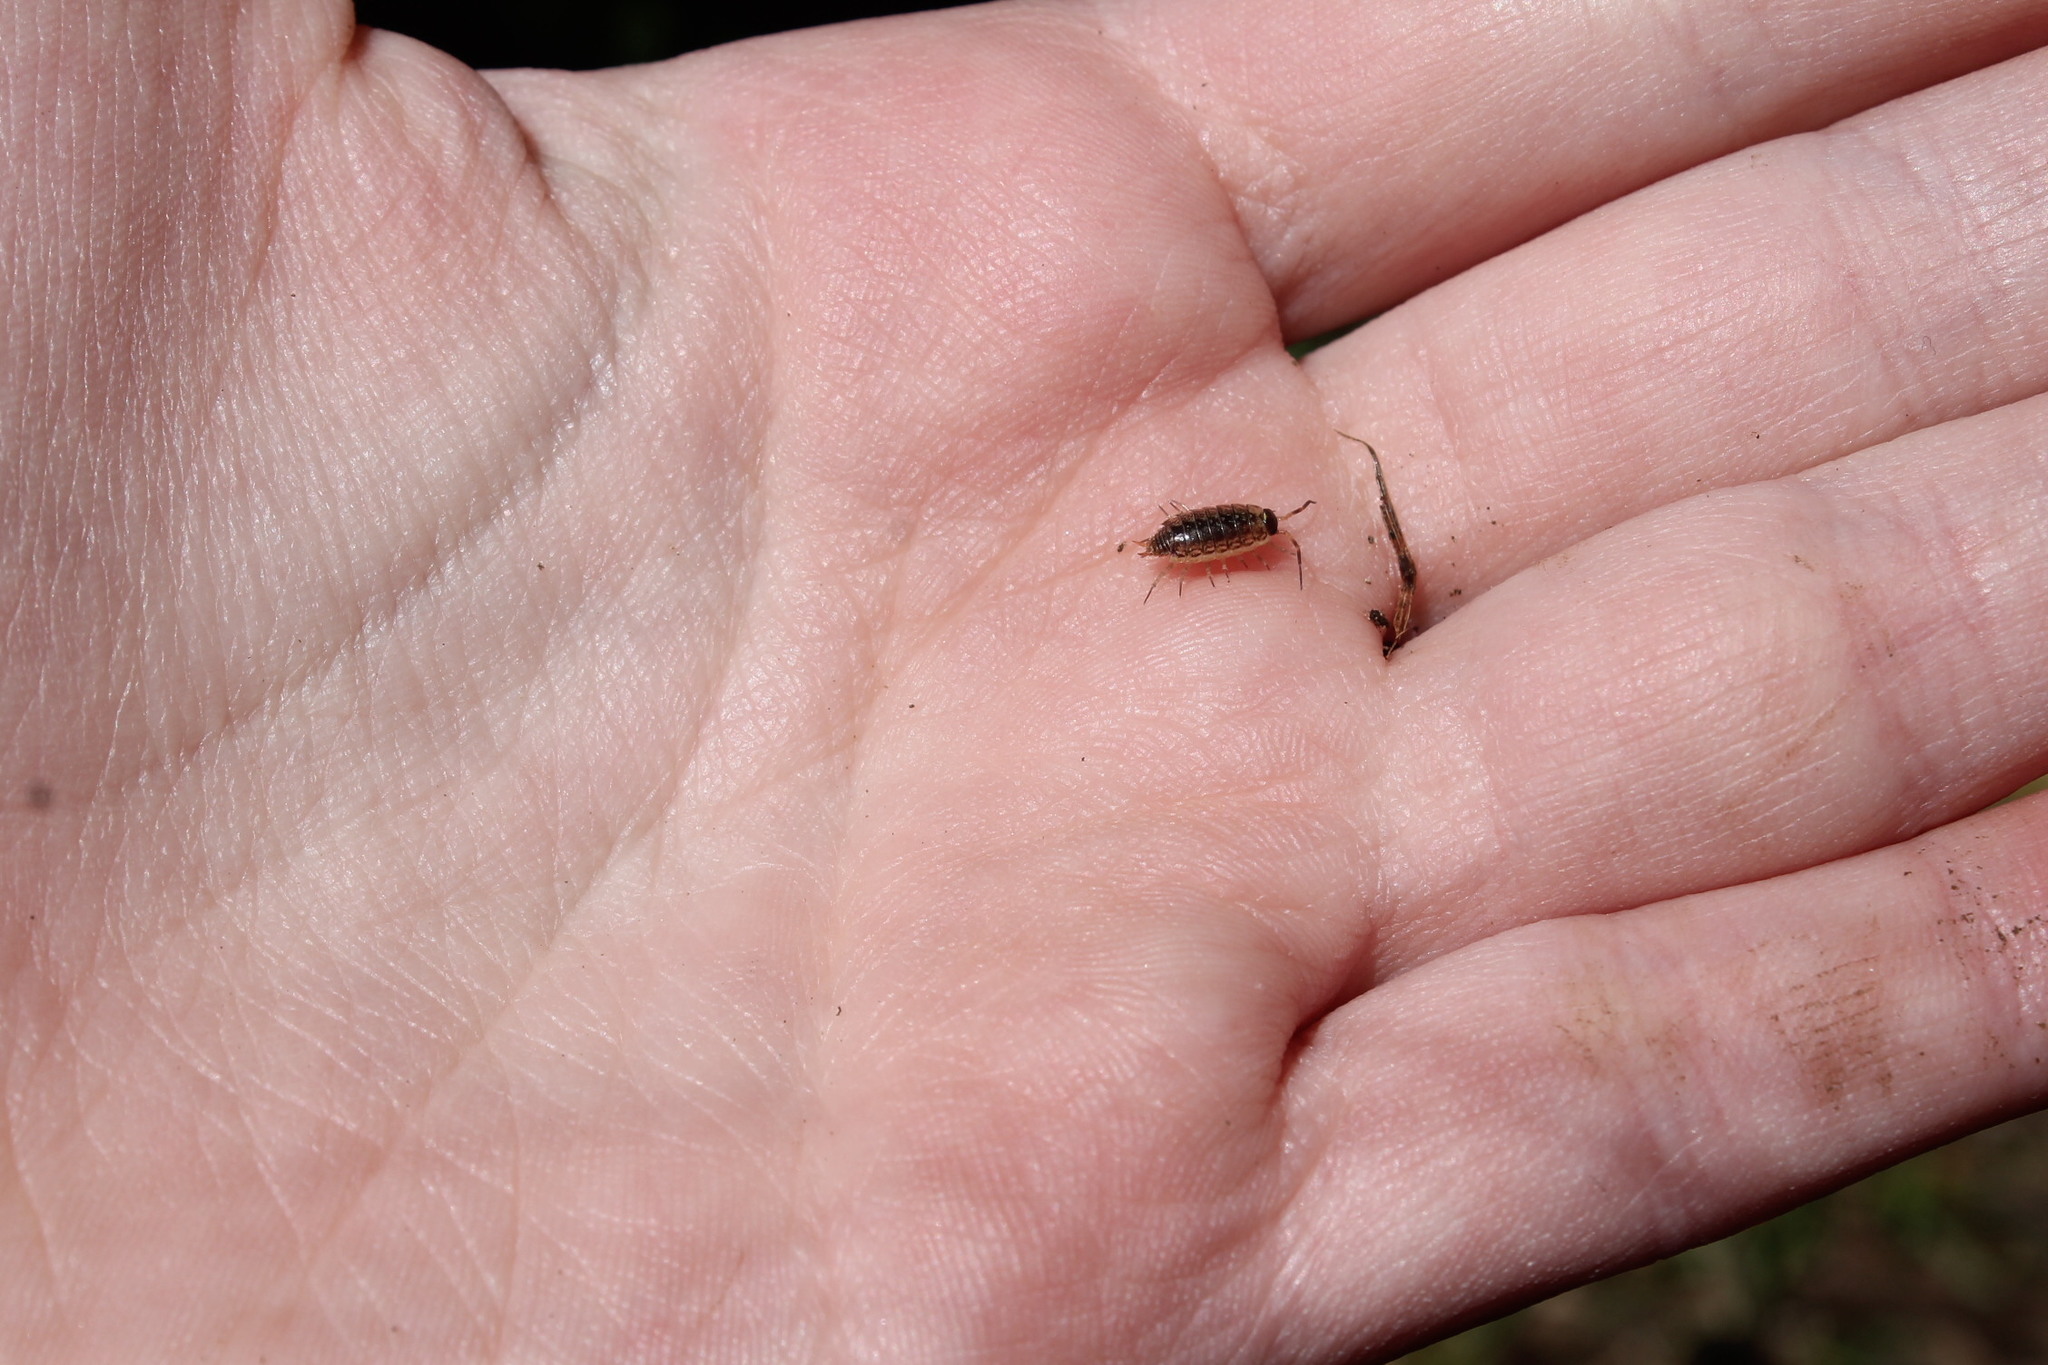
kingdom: Animalia
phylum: Arthropoda
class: Malacostraca
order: Isopoda
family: Philosciidae
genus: Philoscia
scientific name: Philoscia muscorum
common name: Common striped woodlouse
